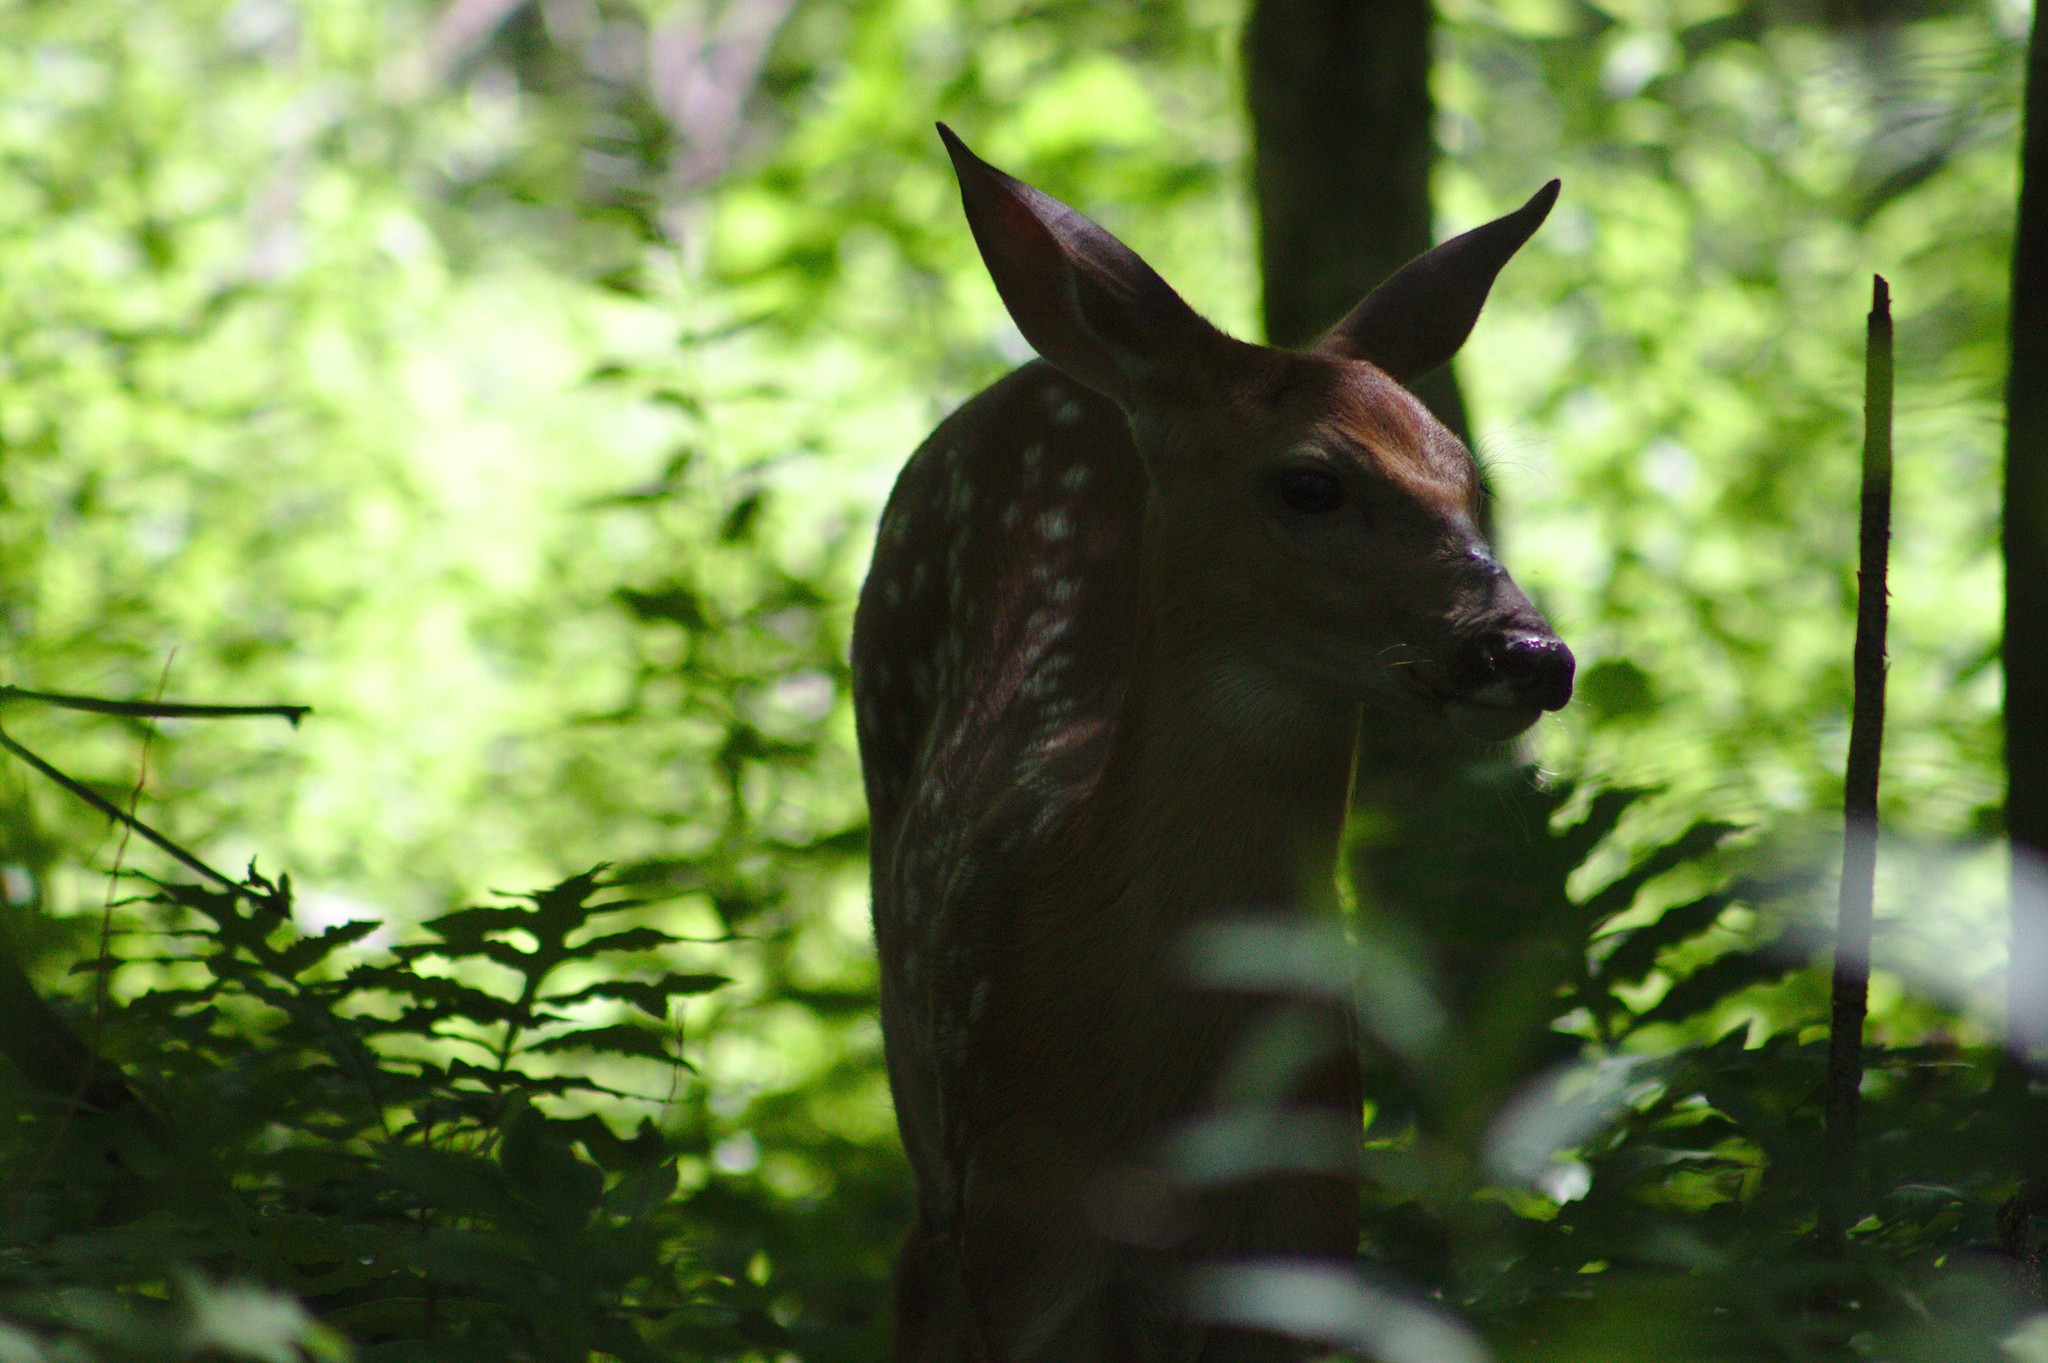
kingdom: Animalia
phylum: Chordata
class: Mammalia
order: Artiodactyla
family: Cervidae
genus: Odocoileus
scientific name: Odocoileus virginianus
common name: White-tailed deer
